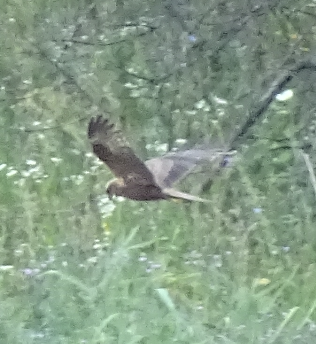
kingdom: Animalia
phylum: Chordata
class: Aves
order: Accipitriformes
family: Accipitridae
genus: Circus
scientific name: Circus aeruginosus
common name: Western marsh harrier
